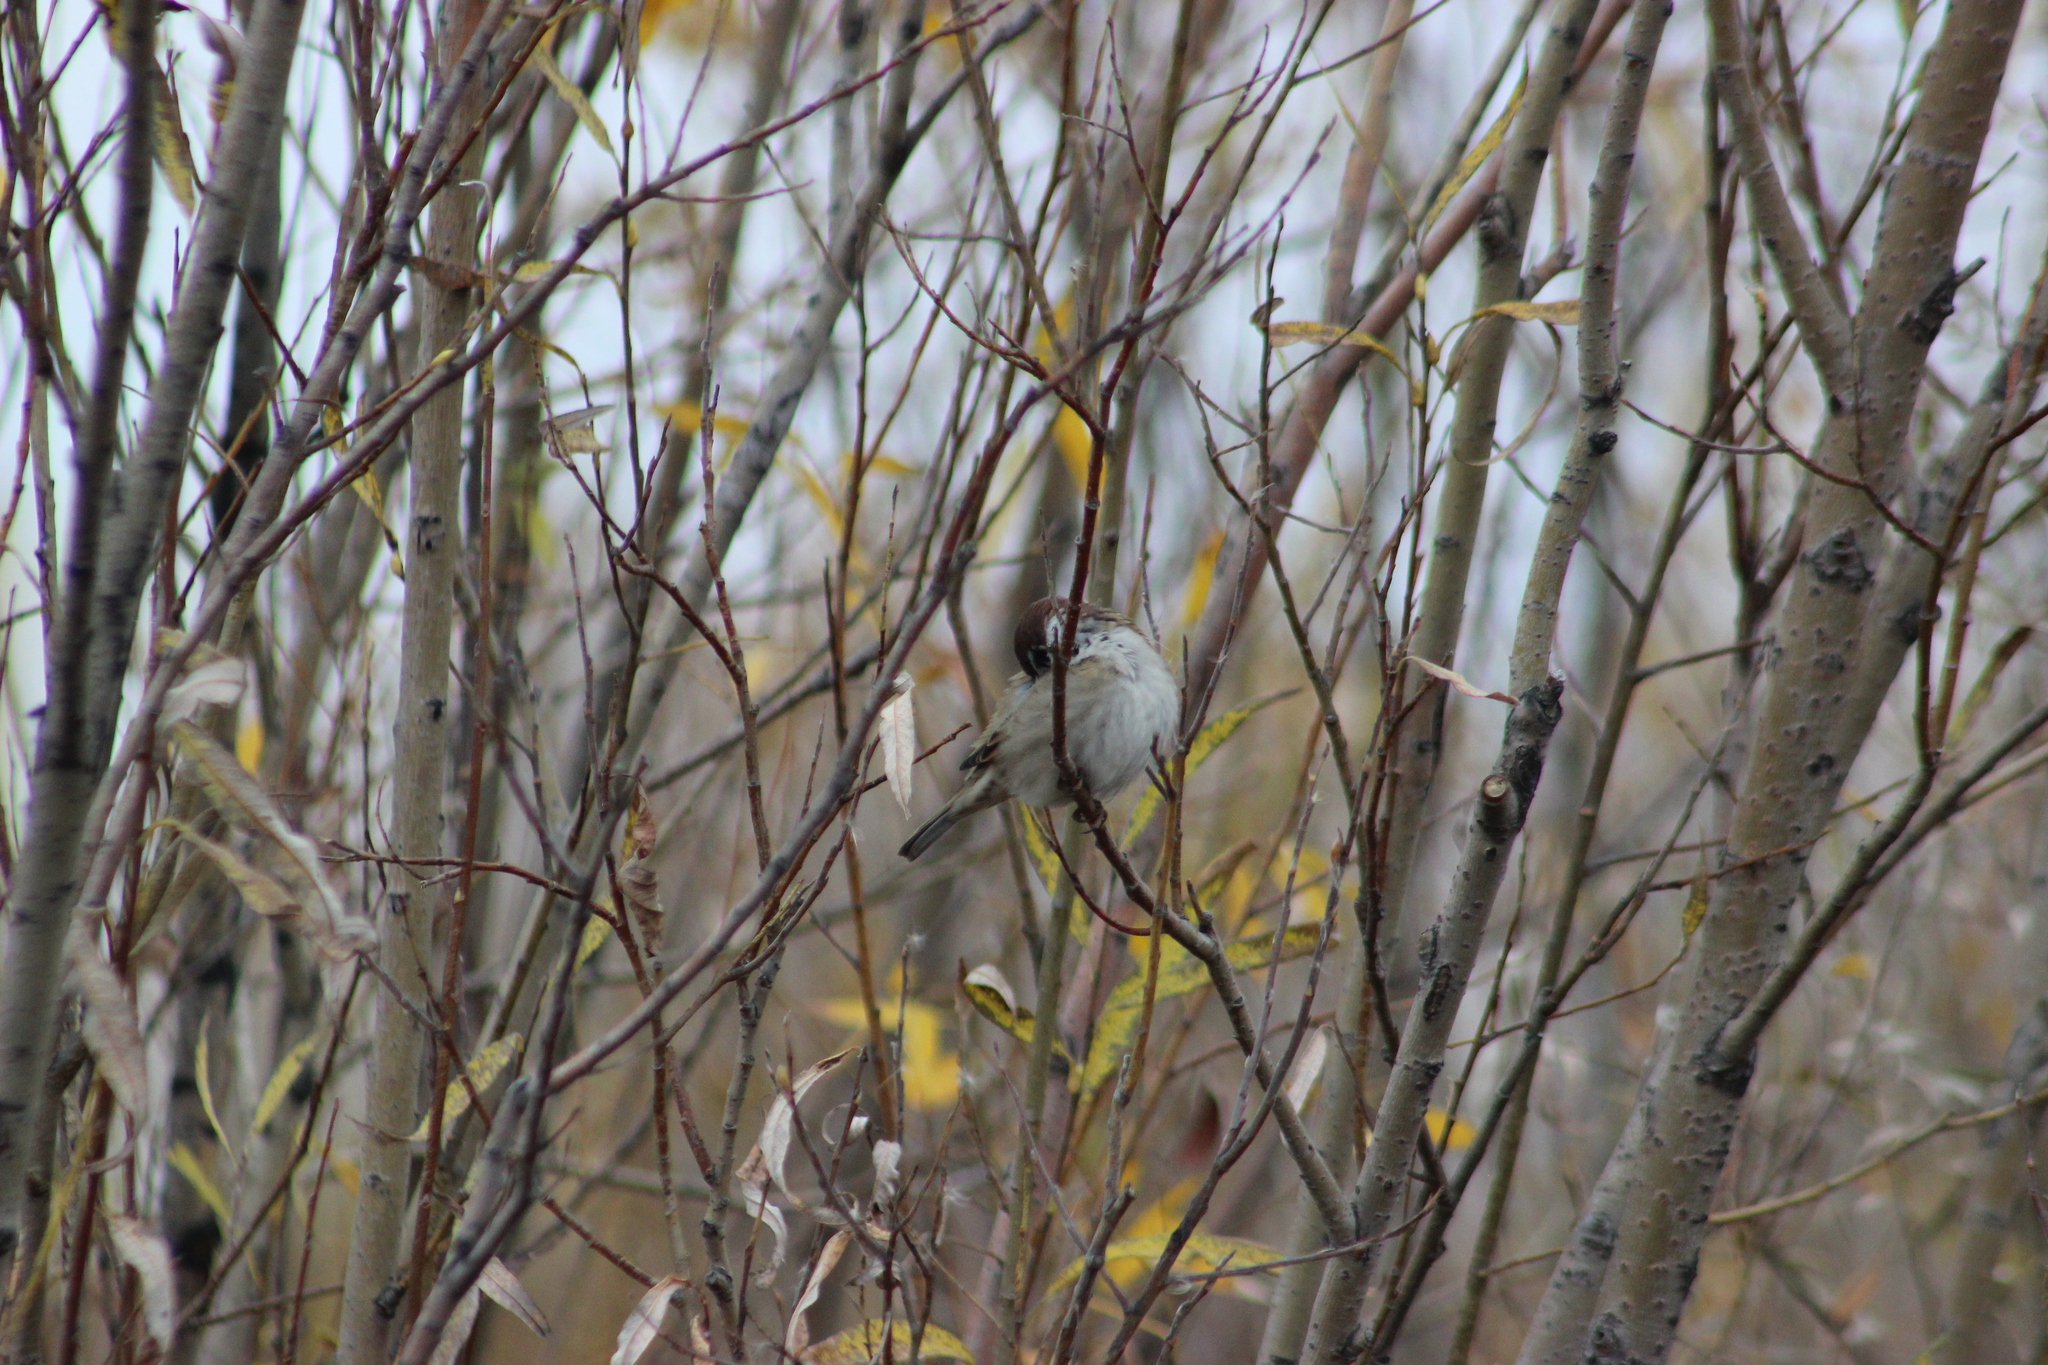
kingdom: Animalia
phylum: Chordata
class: Aves
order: Passeriformes
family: Passeridae
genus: Passer
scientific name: Passer montanus
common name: Eurasian tree sparrow
